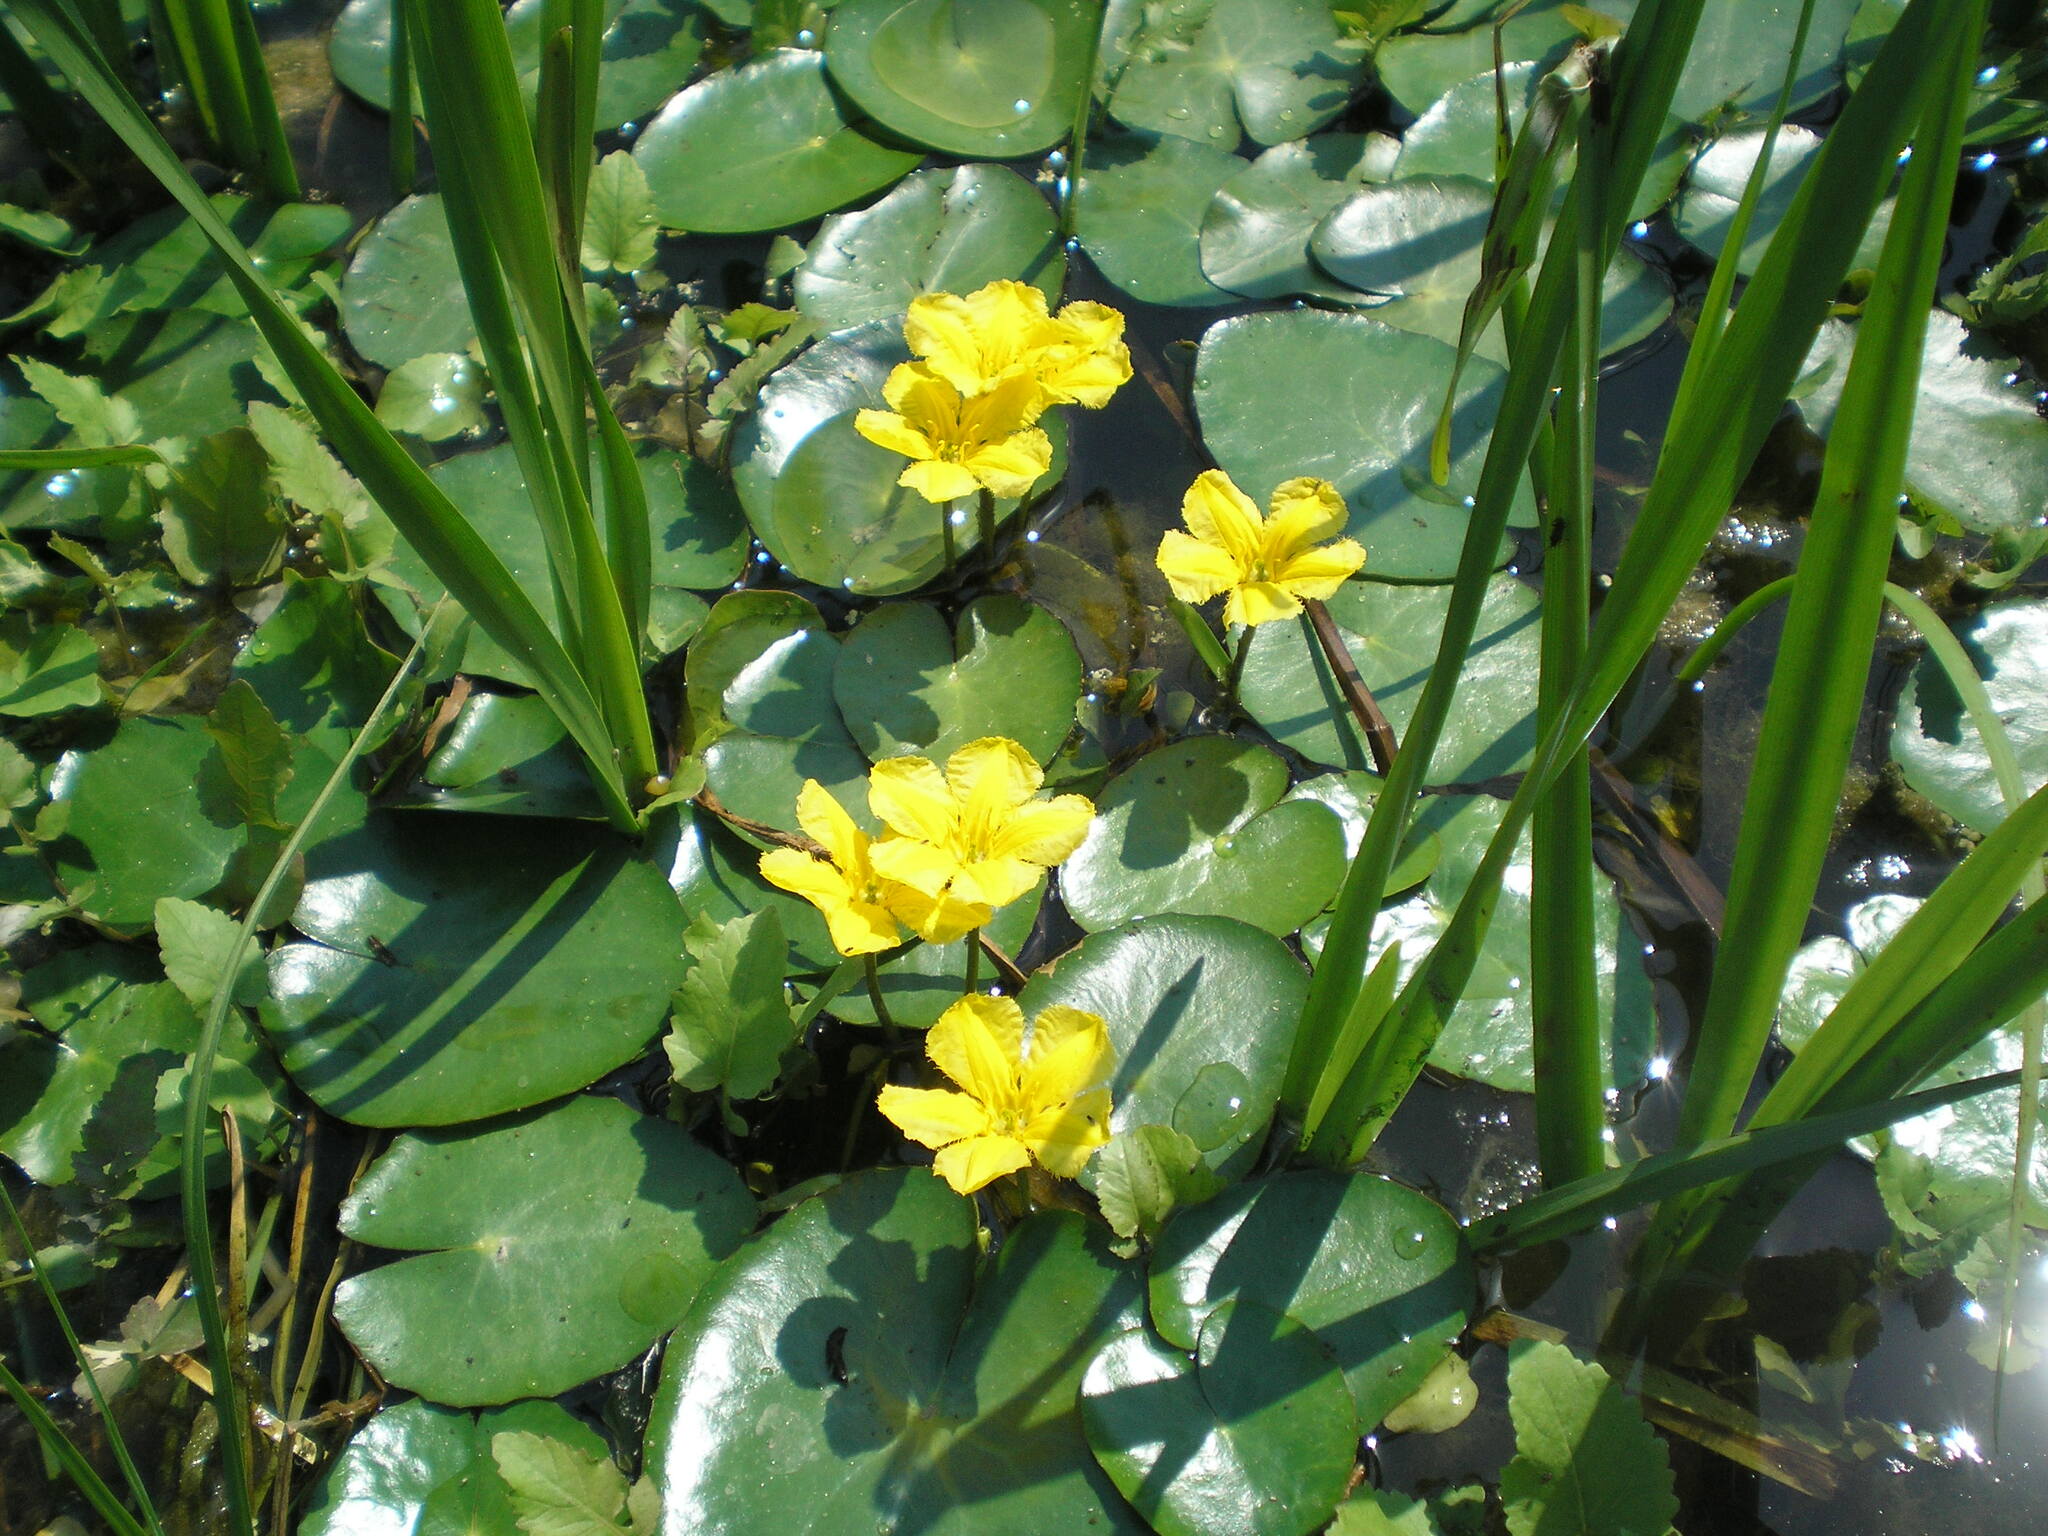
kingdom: Plantae
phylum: Tracheophyta
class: Magnoliopsida
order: Asterales
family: Menyanthaceae
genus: Nymphoides
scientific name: Nymphoides peltata
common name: Fringed water-lily
